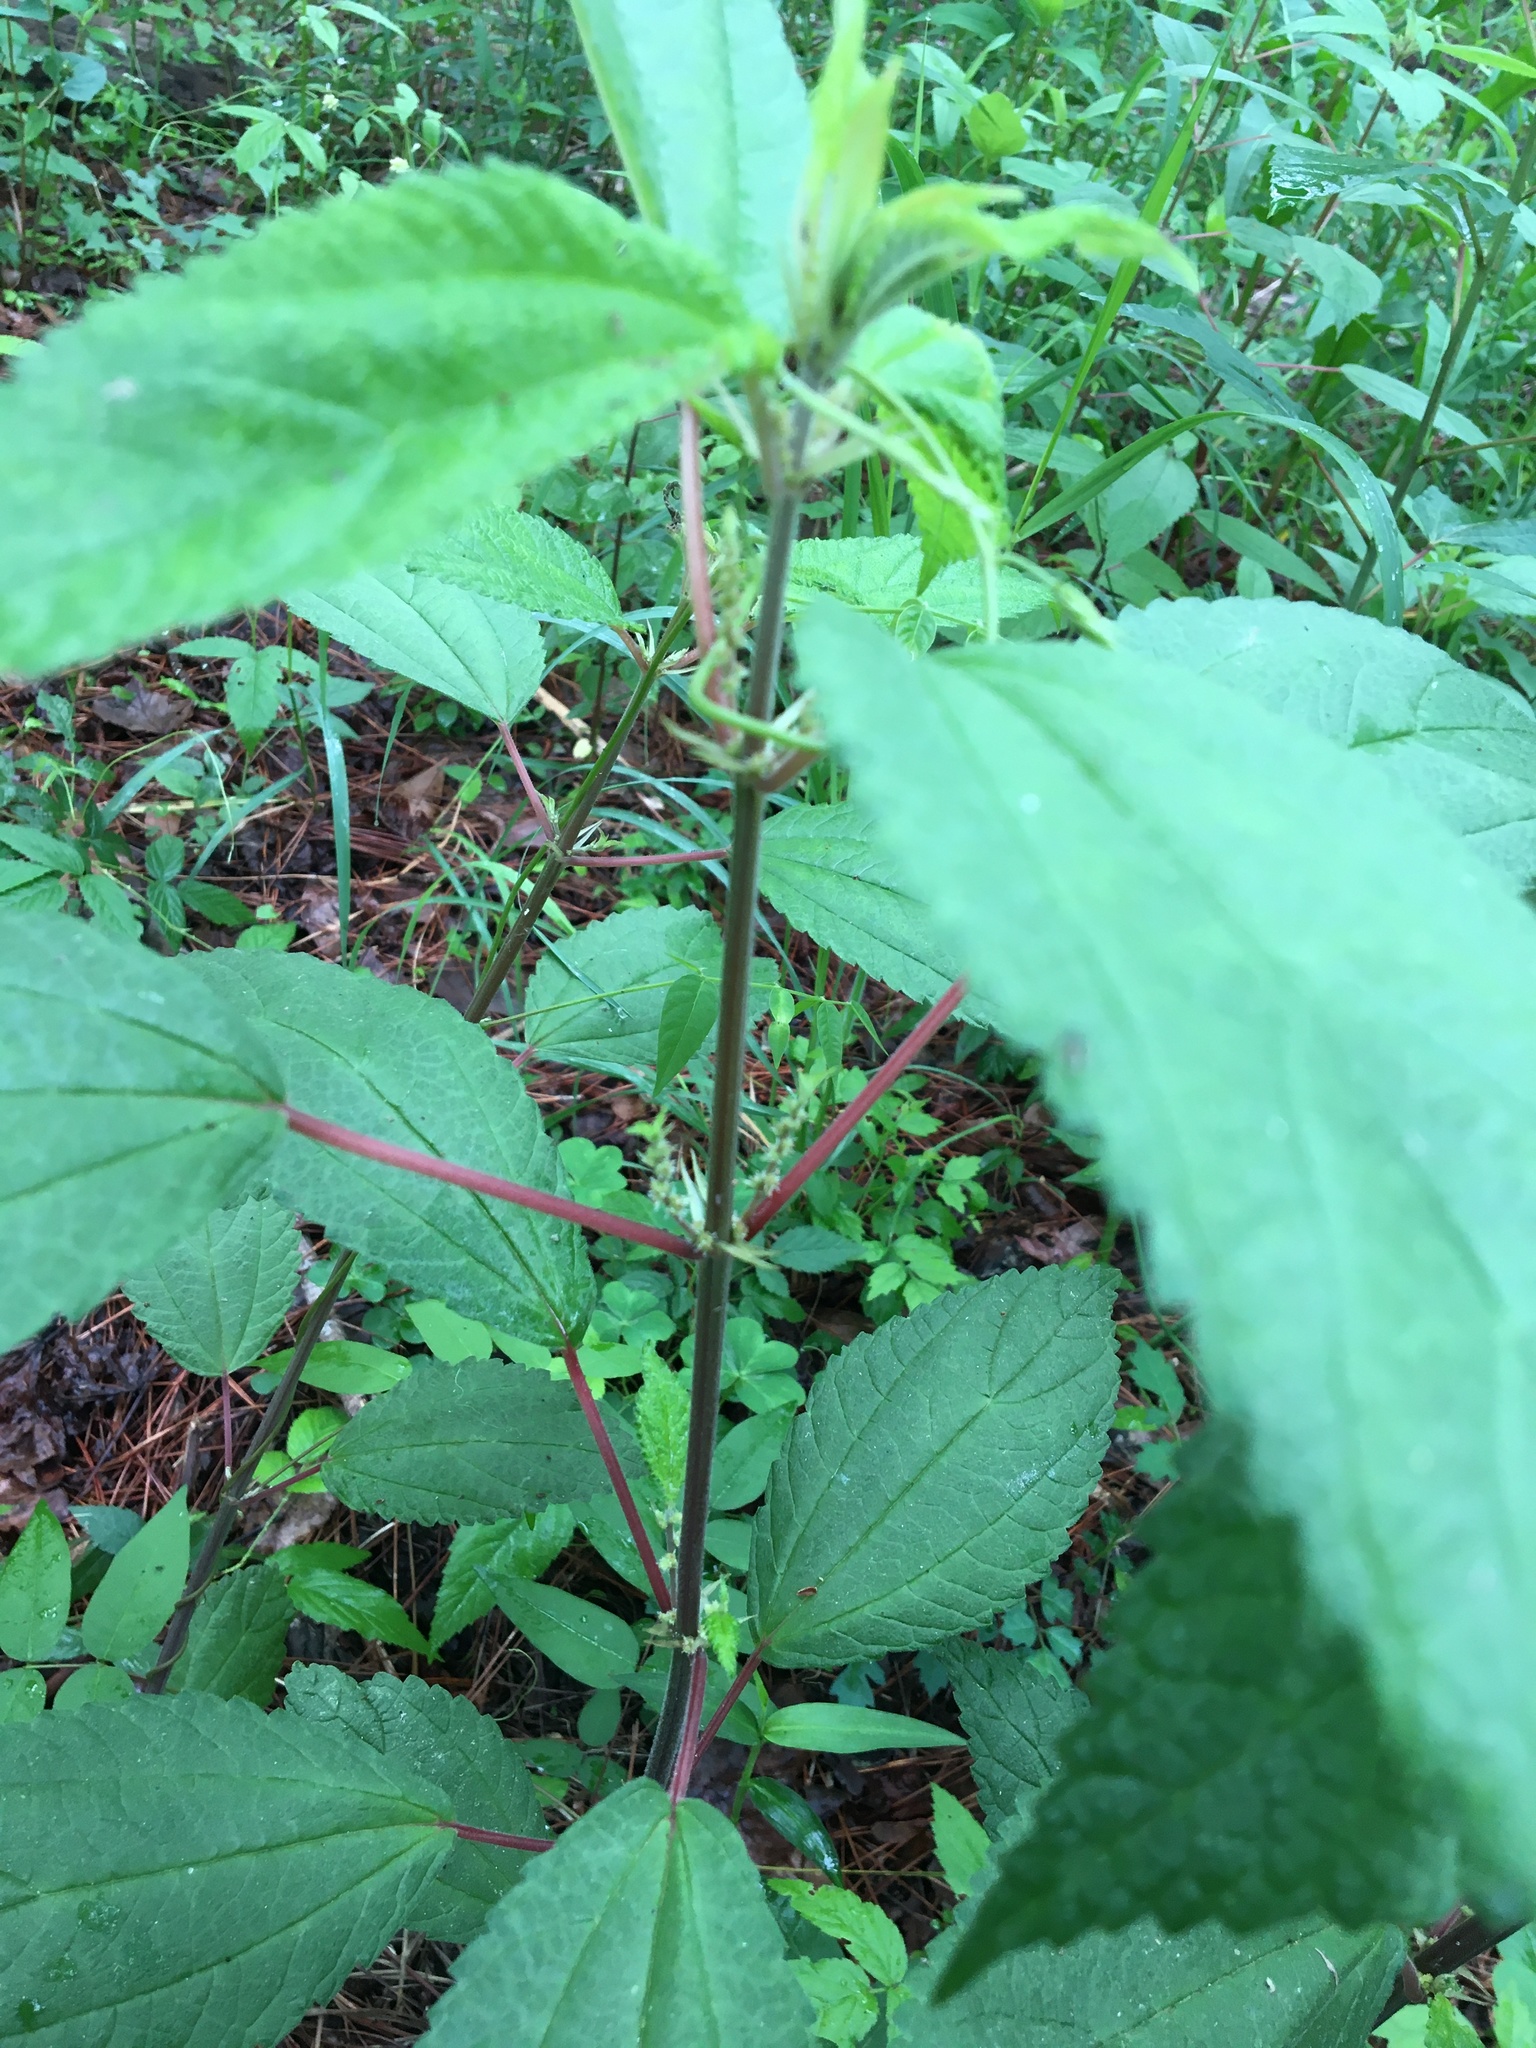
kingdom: Plantae
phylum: Tracheophyta
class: Magnoliopsida
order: Rosales
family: Urticaceae
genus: Boehmeria
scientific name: Boehmeria cylindrica
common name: Bog-hemp
